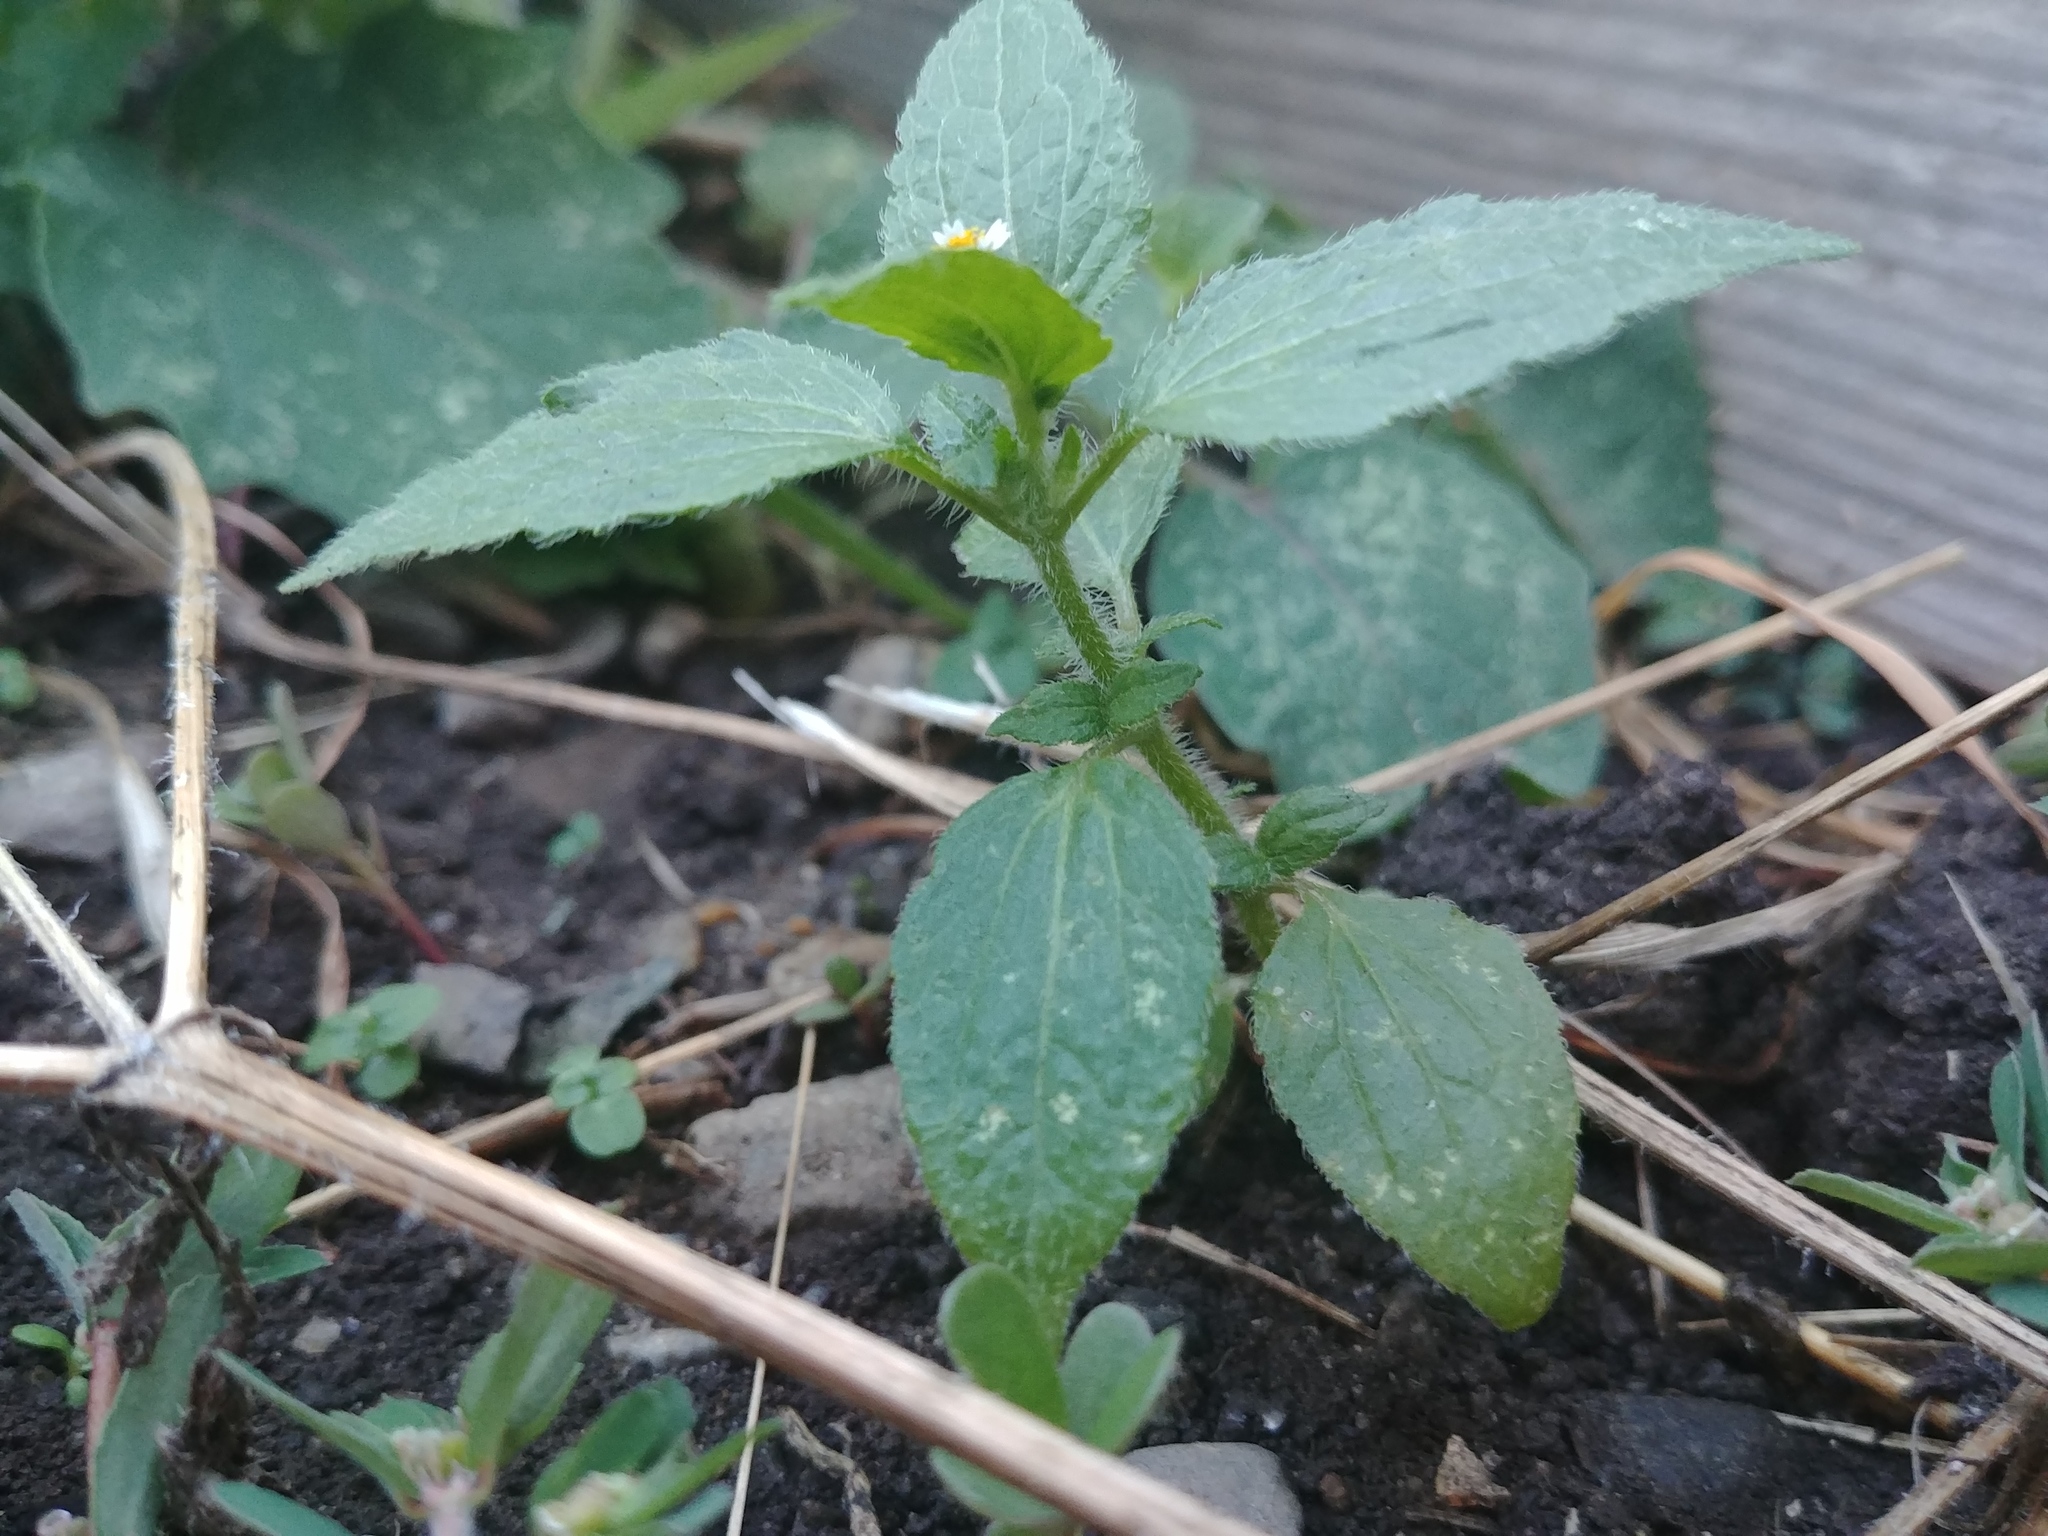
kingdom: Plantae
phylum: Tracheophyta
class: Magnoliopsida
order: Asterales
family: Asteraceae
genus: Galinsoga
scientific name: Galinsoga quadriradiata
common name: Shaggy soldier
